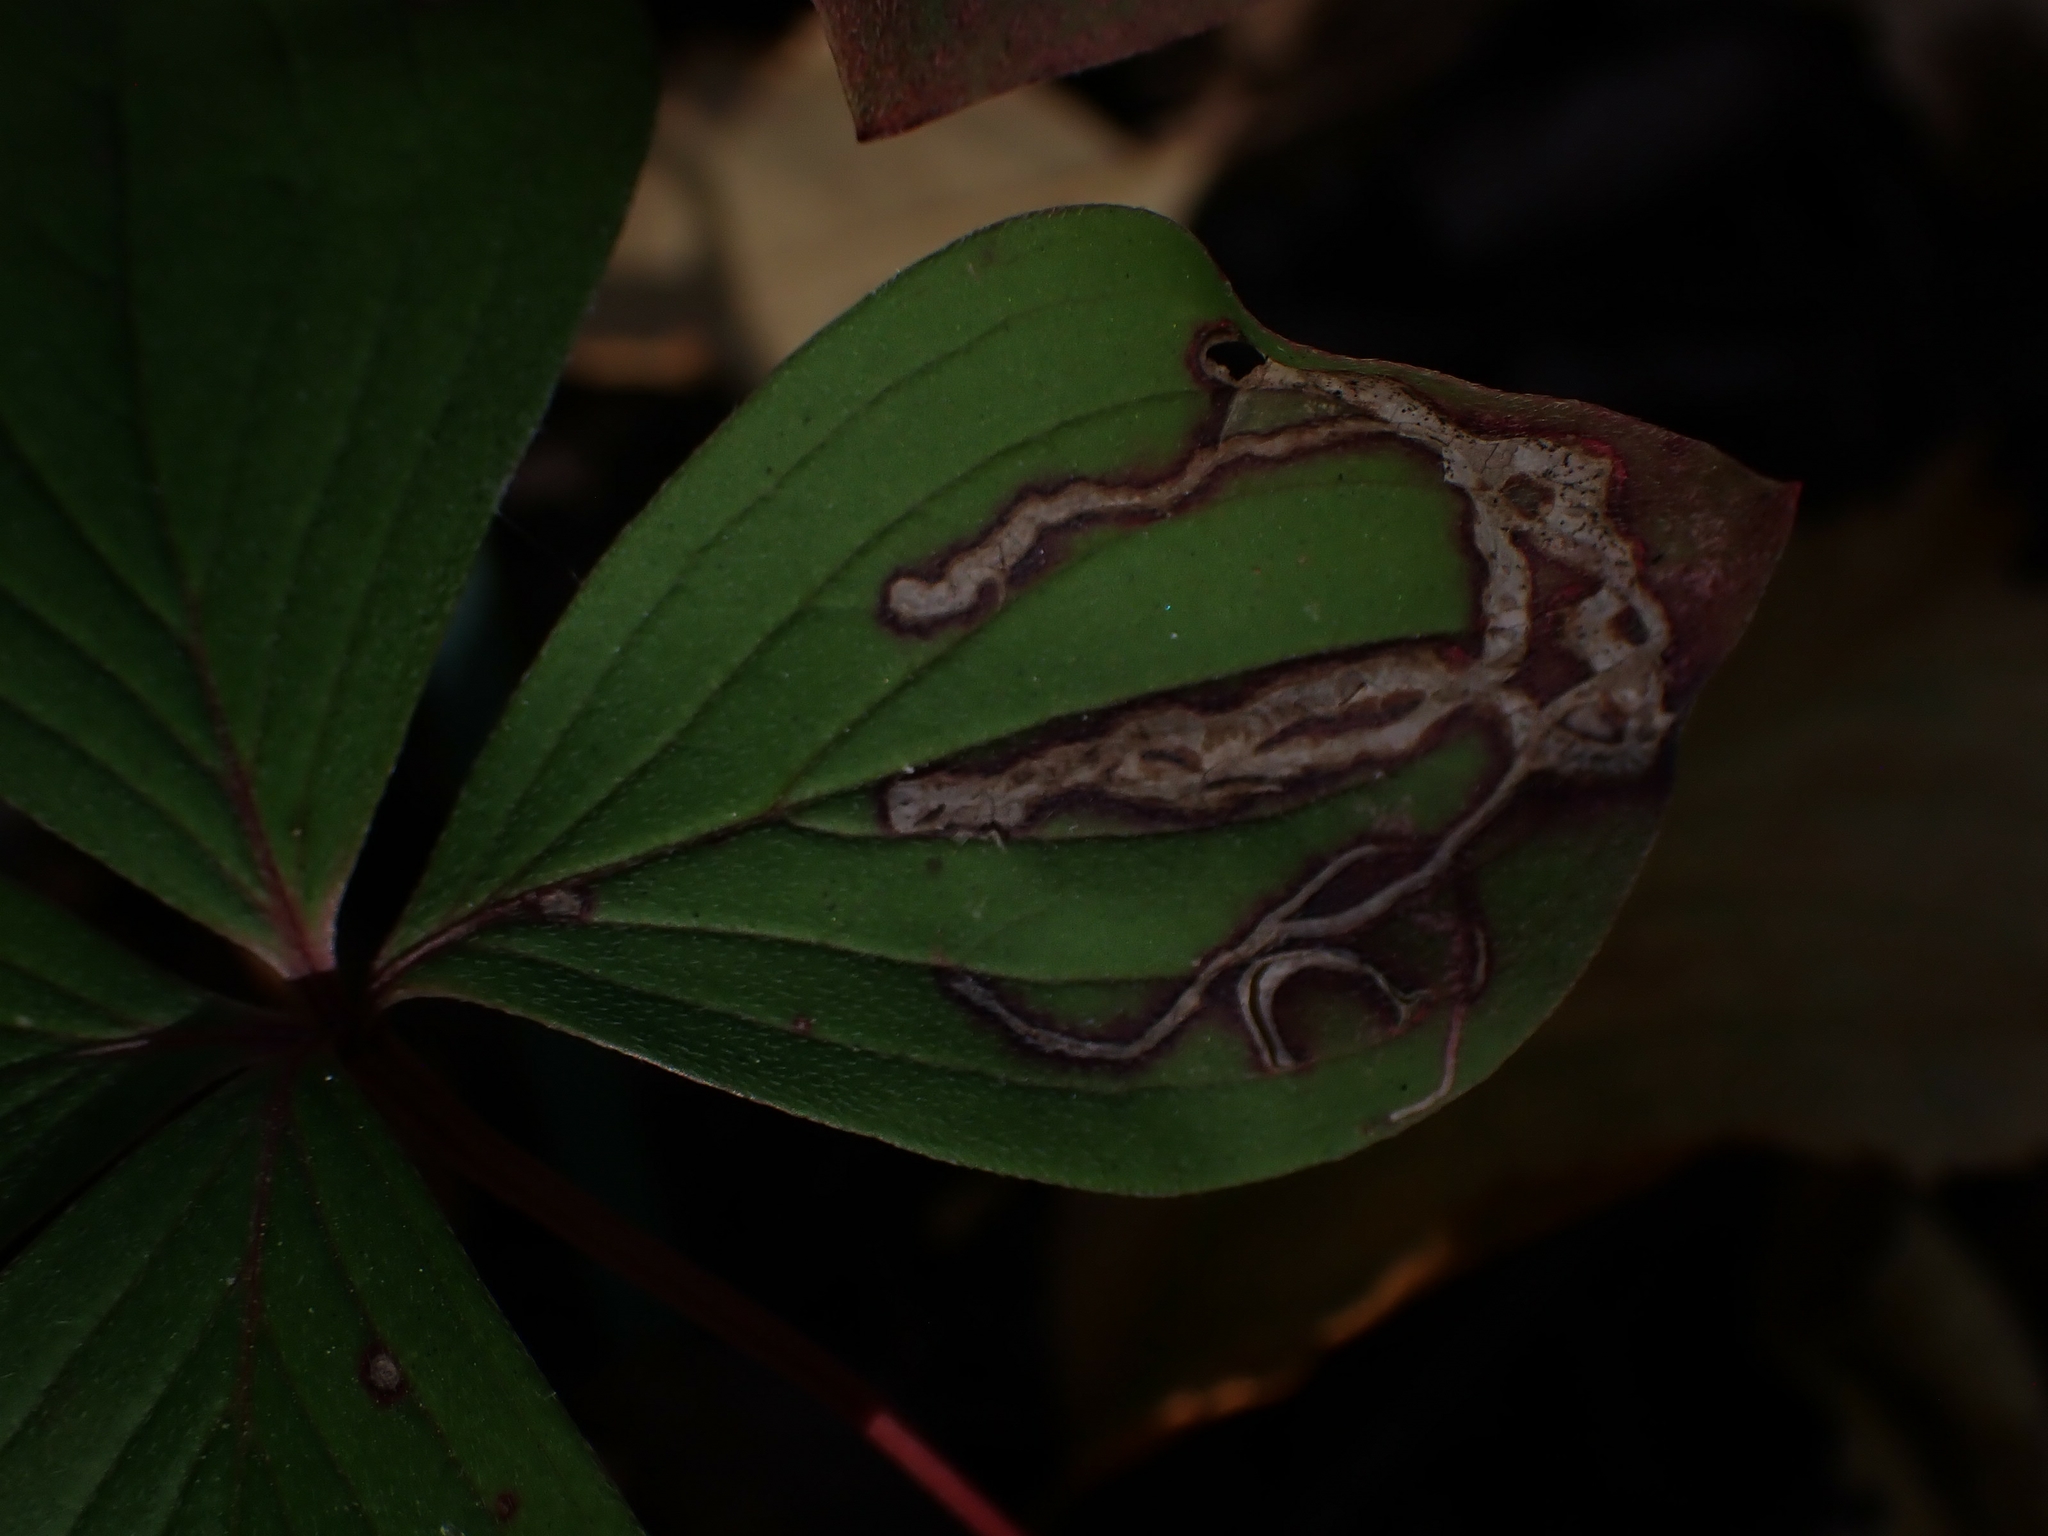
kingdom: Animalia
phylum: Arthropoda
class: Insecta
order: Diptera
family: Agromyzidae
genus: Phytomyza
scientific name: Phytomyza agromyzina
